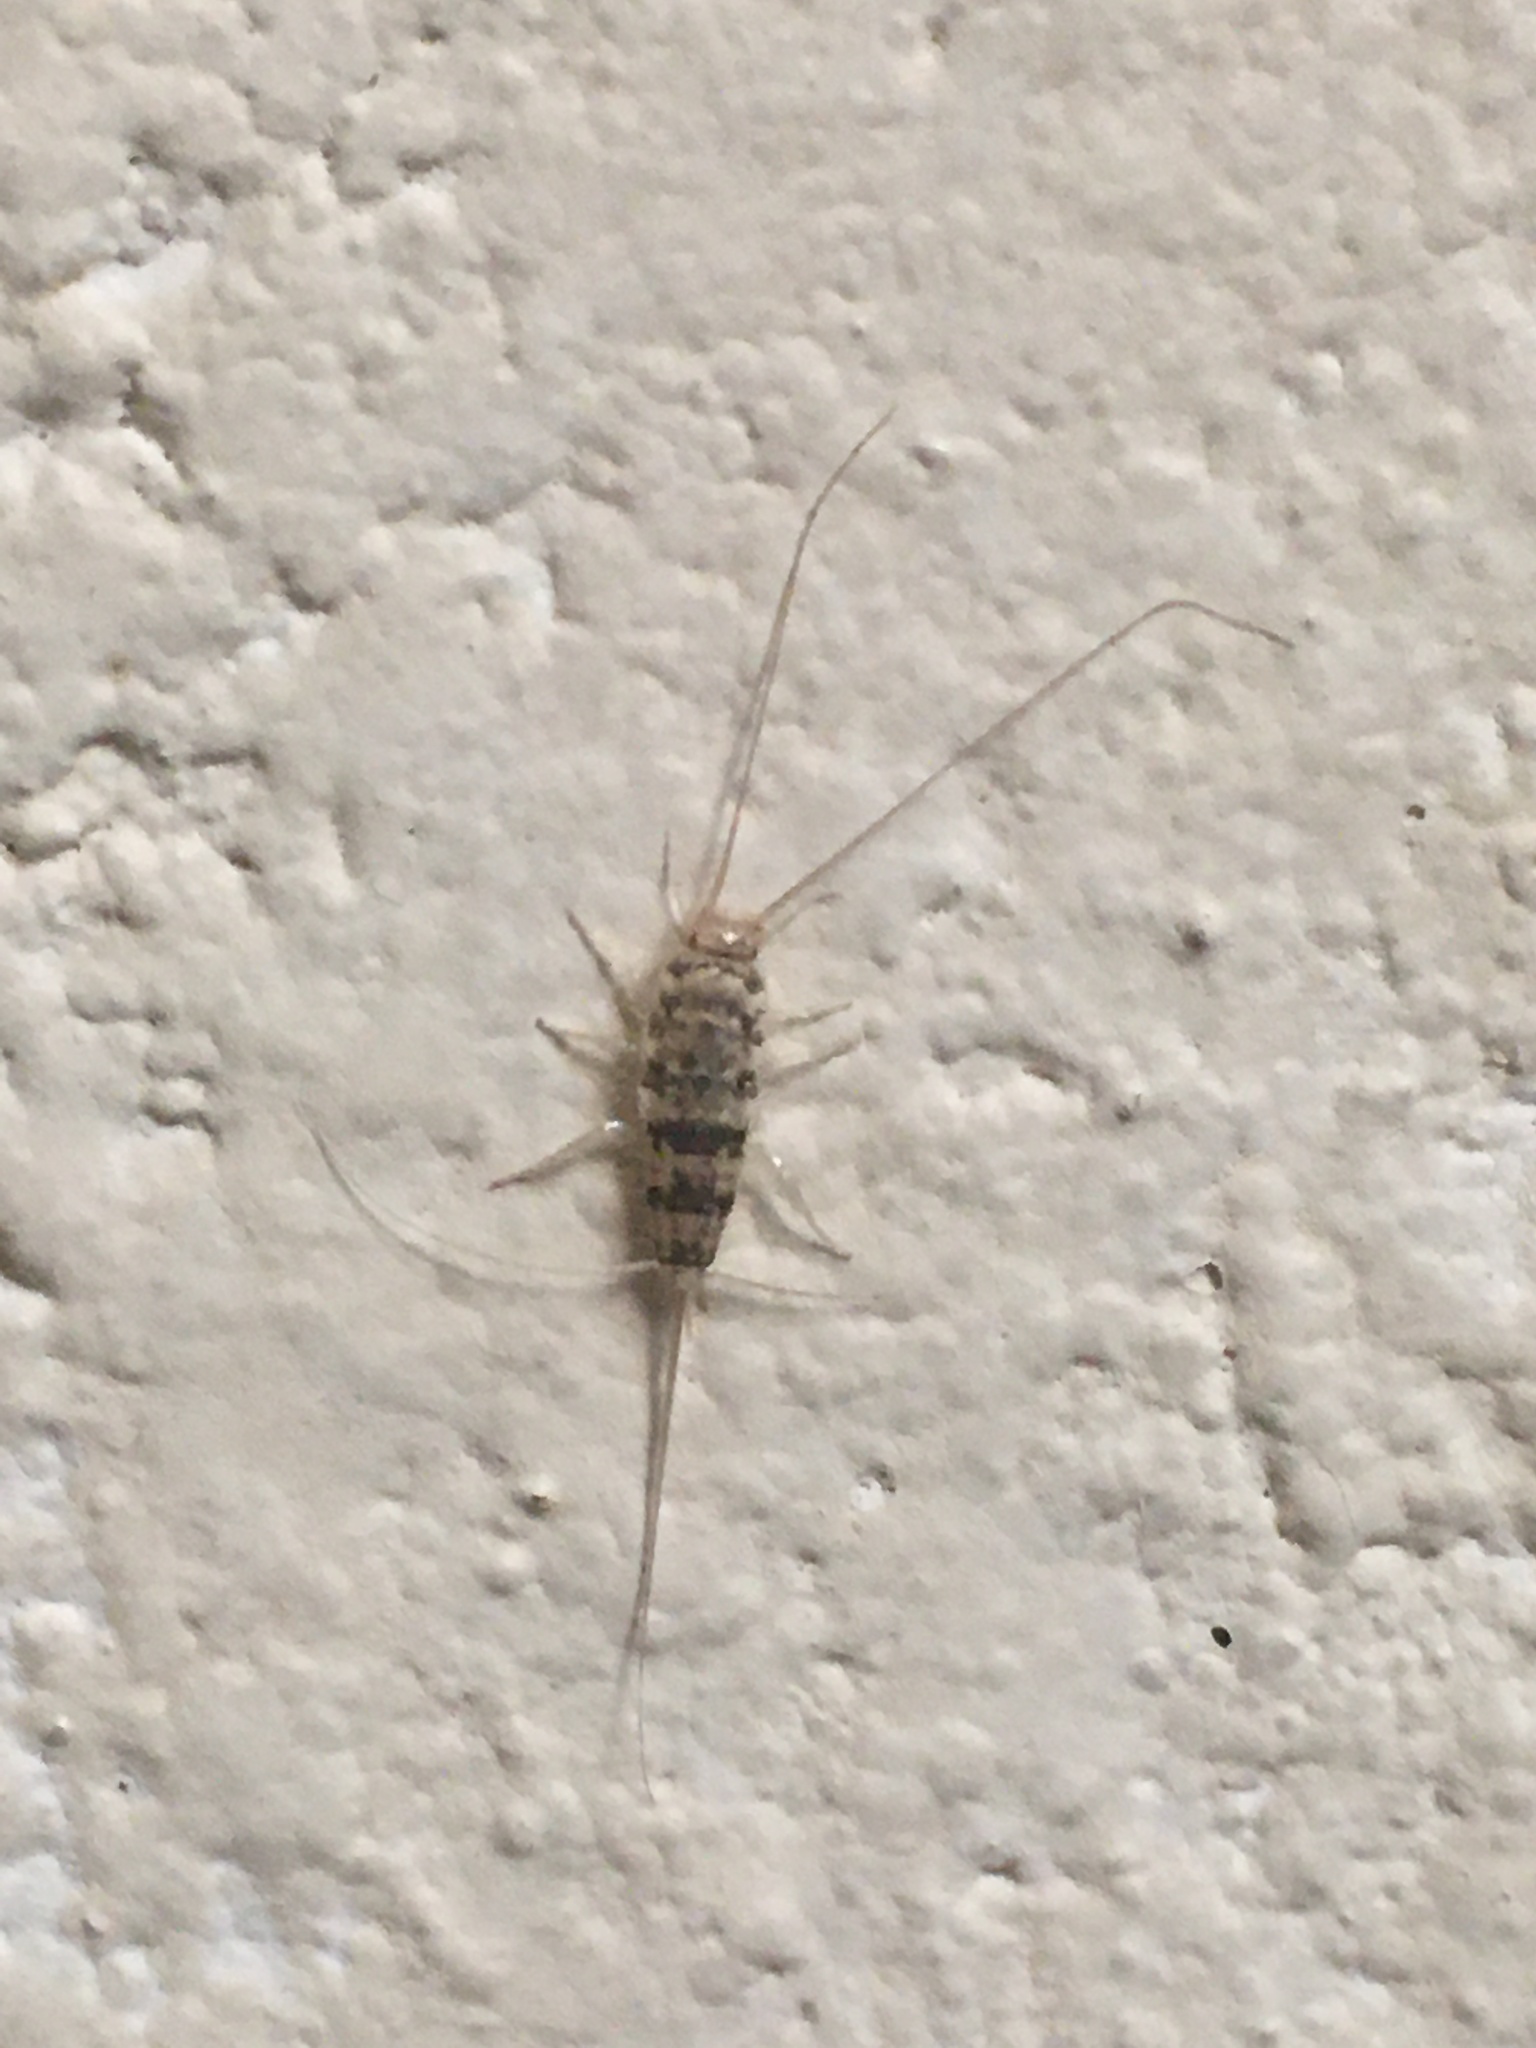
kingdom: Animalia
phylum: Arthropoda
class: Insecta
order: Zygentoma
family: Lepismatidae
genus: Thermobia
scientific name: Thermobia domestica
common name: Firebrat
